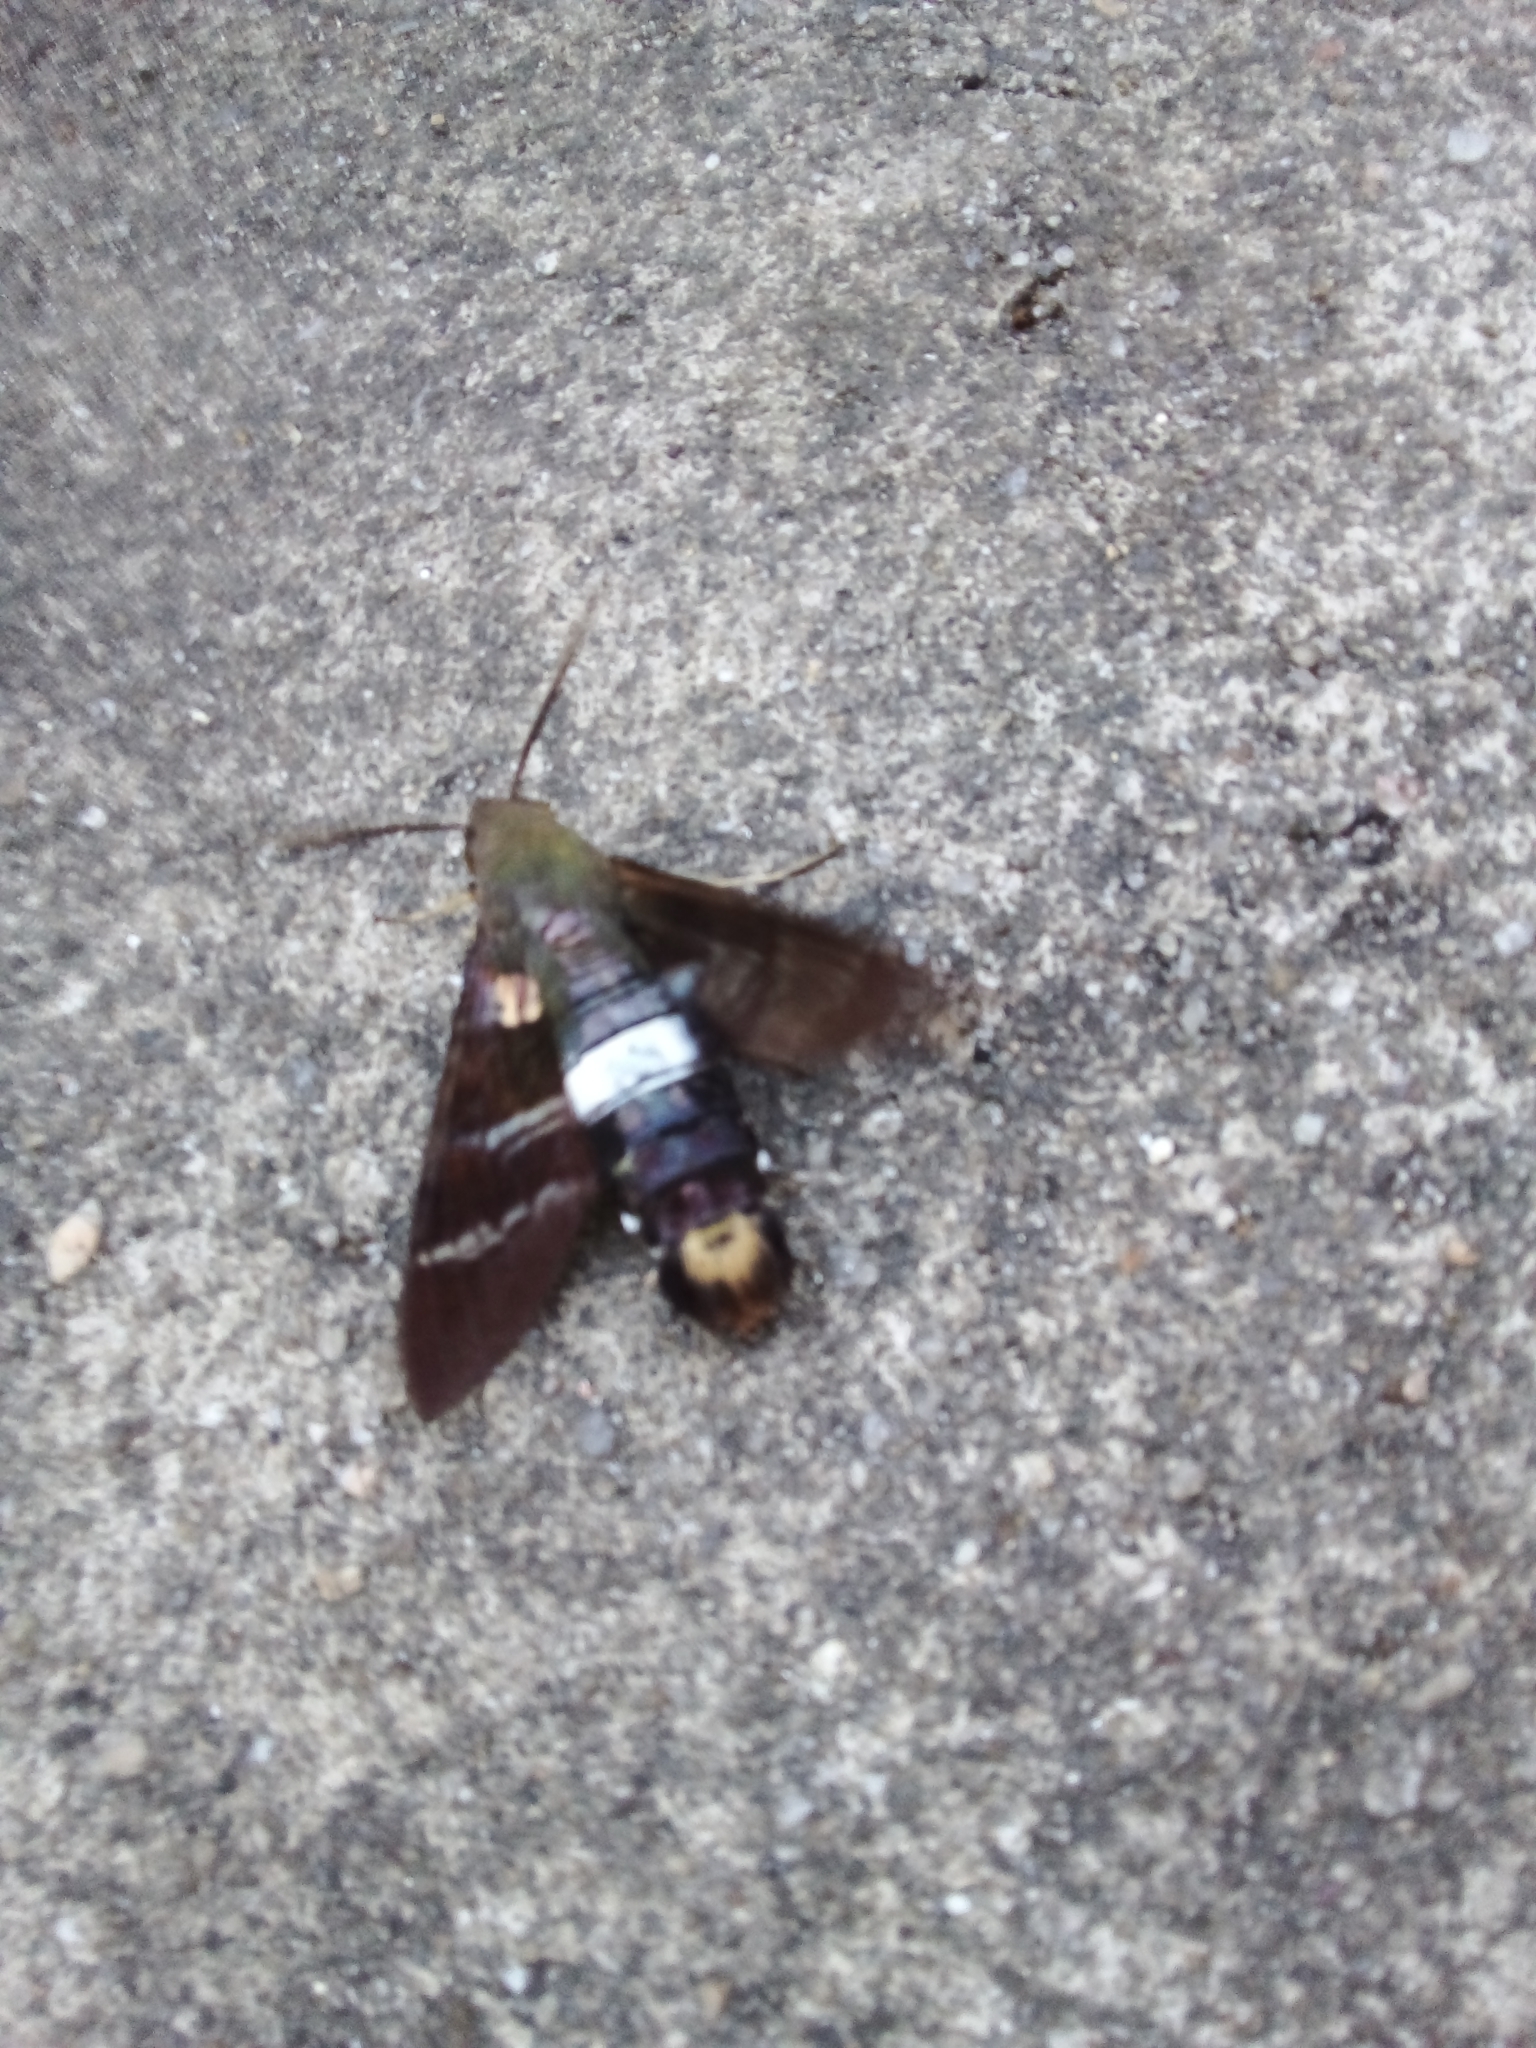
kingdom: Animalia
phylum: Arthropoda
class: Insecta
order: Lepidoptera
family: Sphingidae
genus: Aellopos
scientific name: Aellopos fadus
